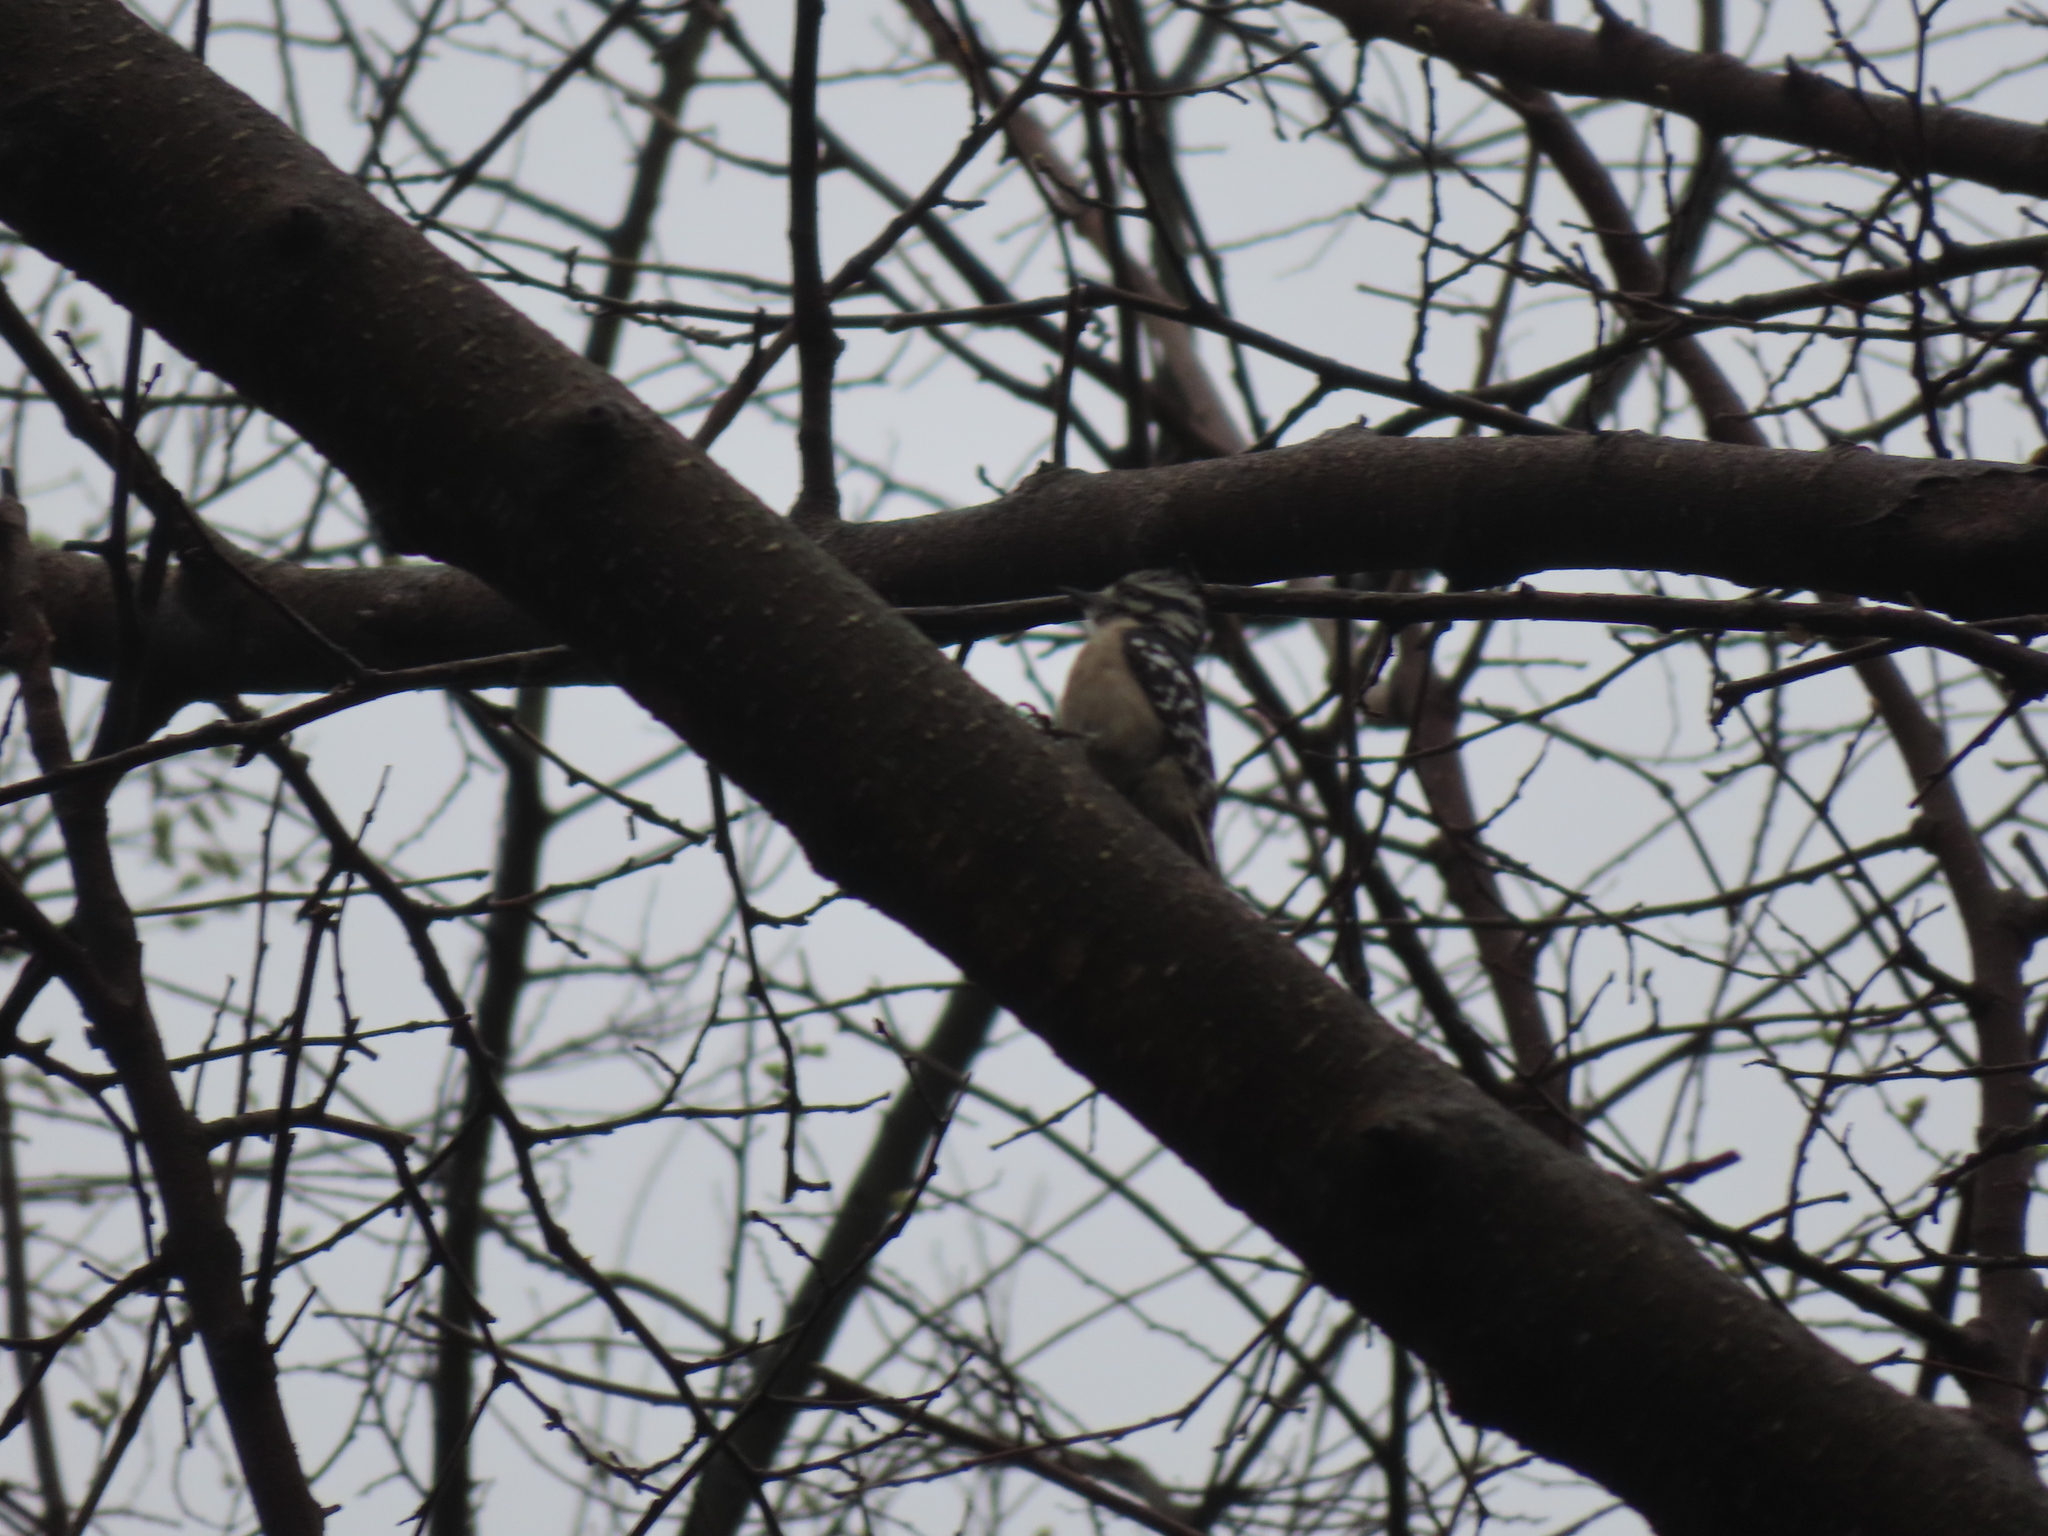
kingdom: Animalia
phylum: Chordata
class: Aves
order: Piciformes
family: Picidae
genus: Dryobates
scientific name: Dryobates pubescens
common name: Downy woodpecker
